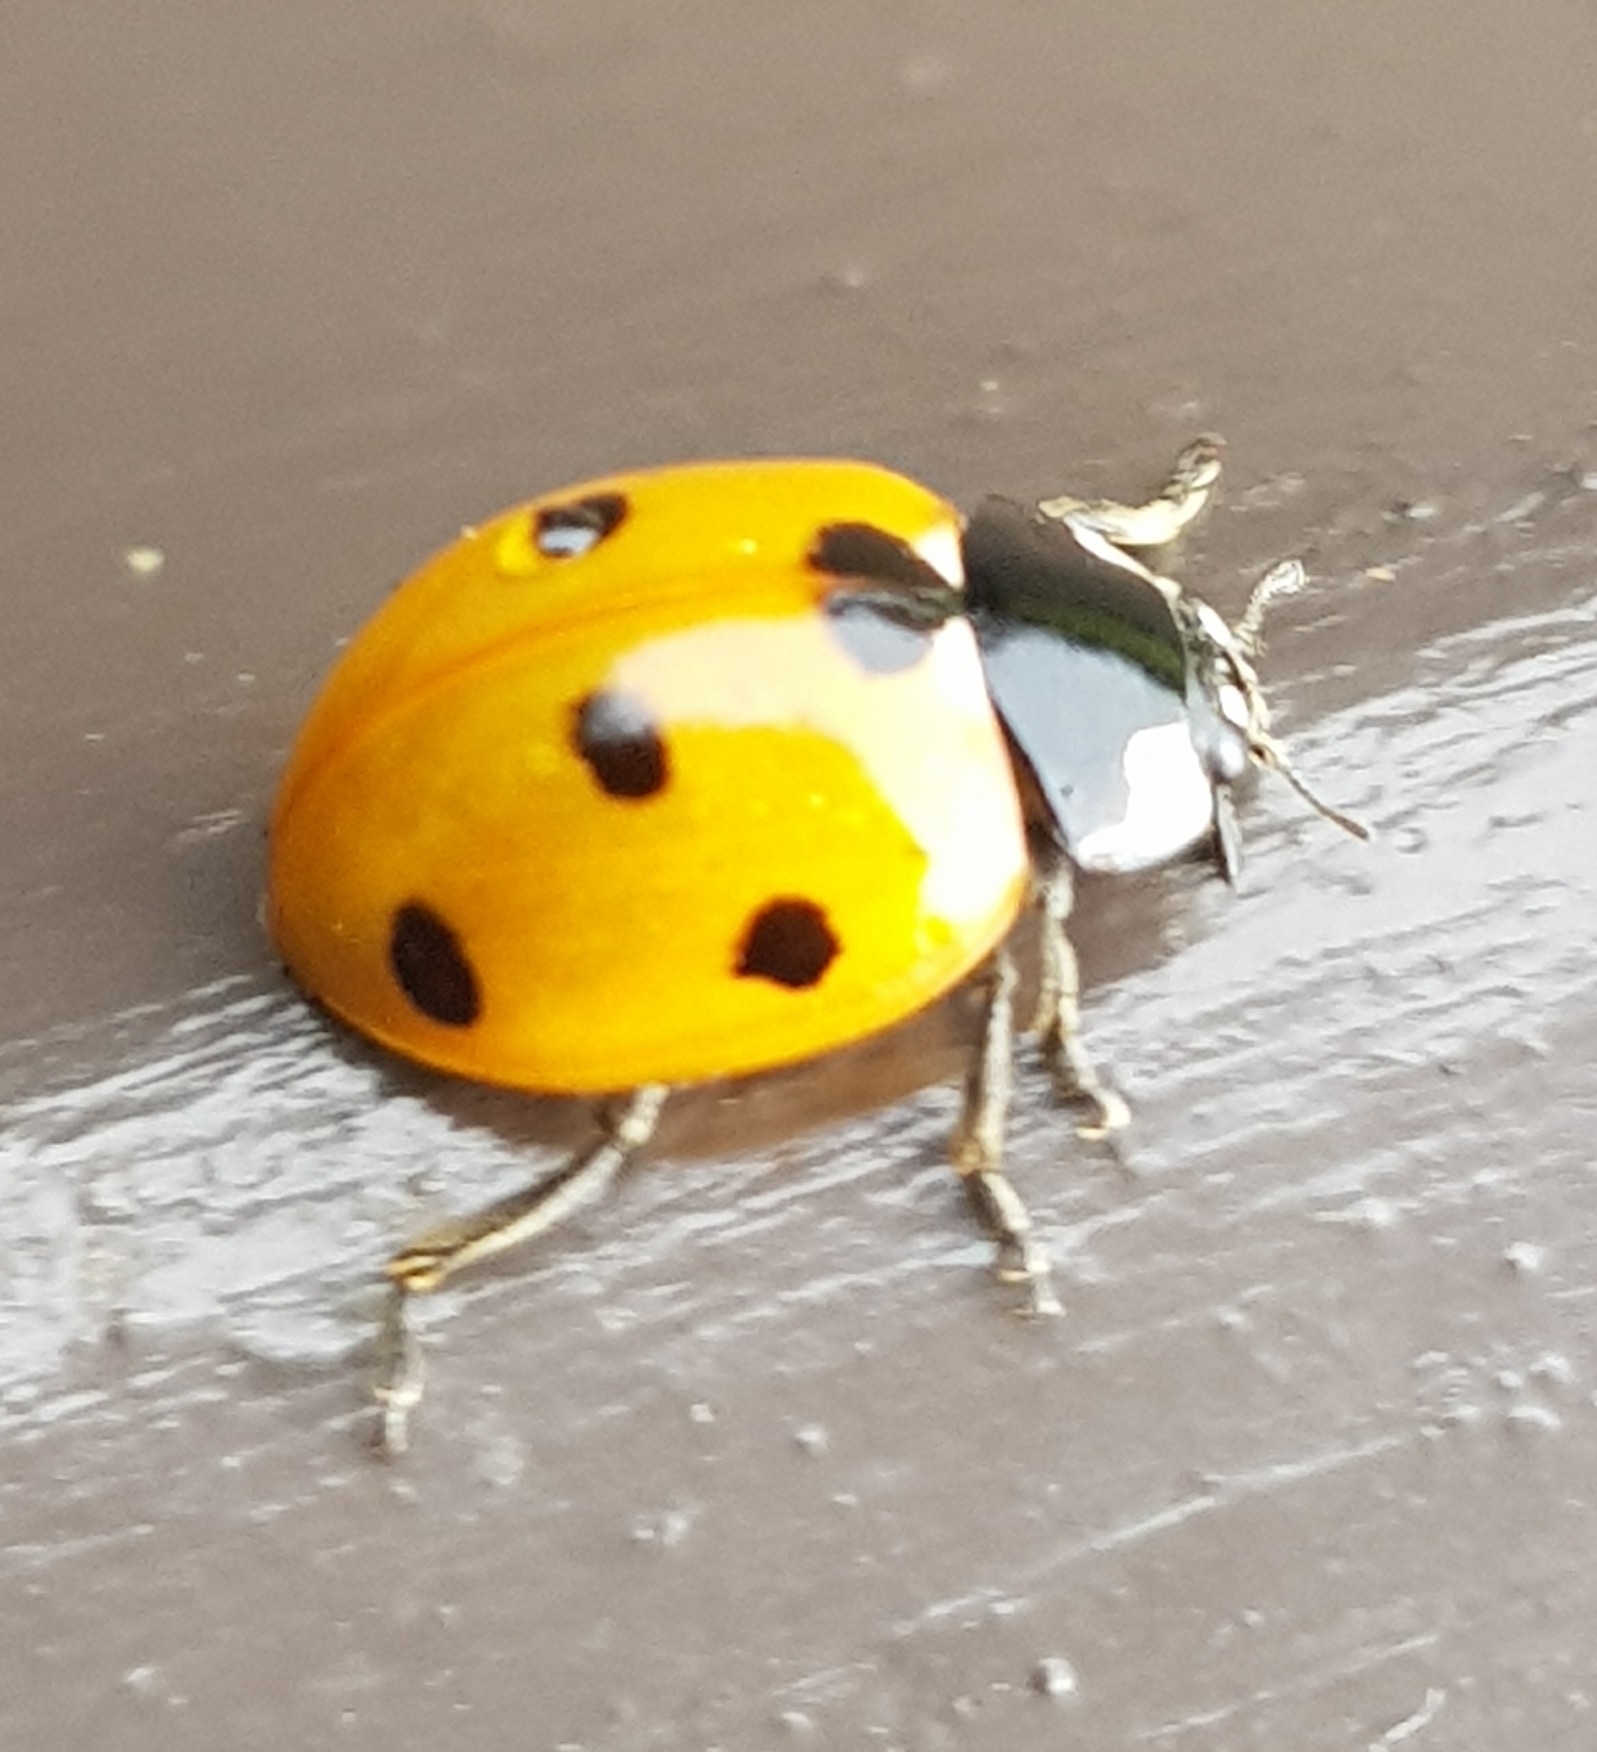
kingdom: Animalia
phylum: Arthropoda
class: Insecta
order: Coleoptera
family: Coccinellidae
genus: Coccinella
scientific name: Coccinella septempunctata
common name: Sevenspotted lady beetle
